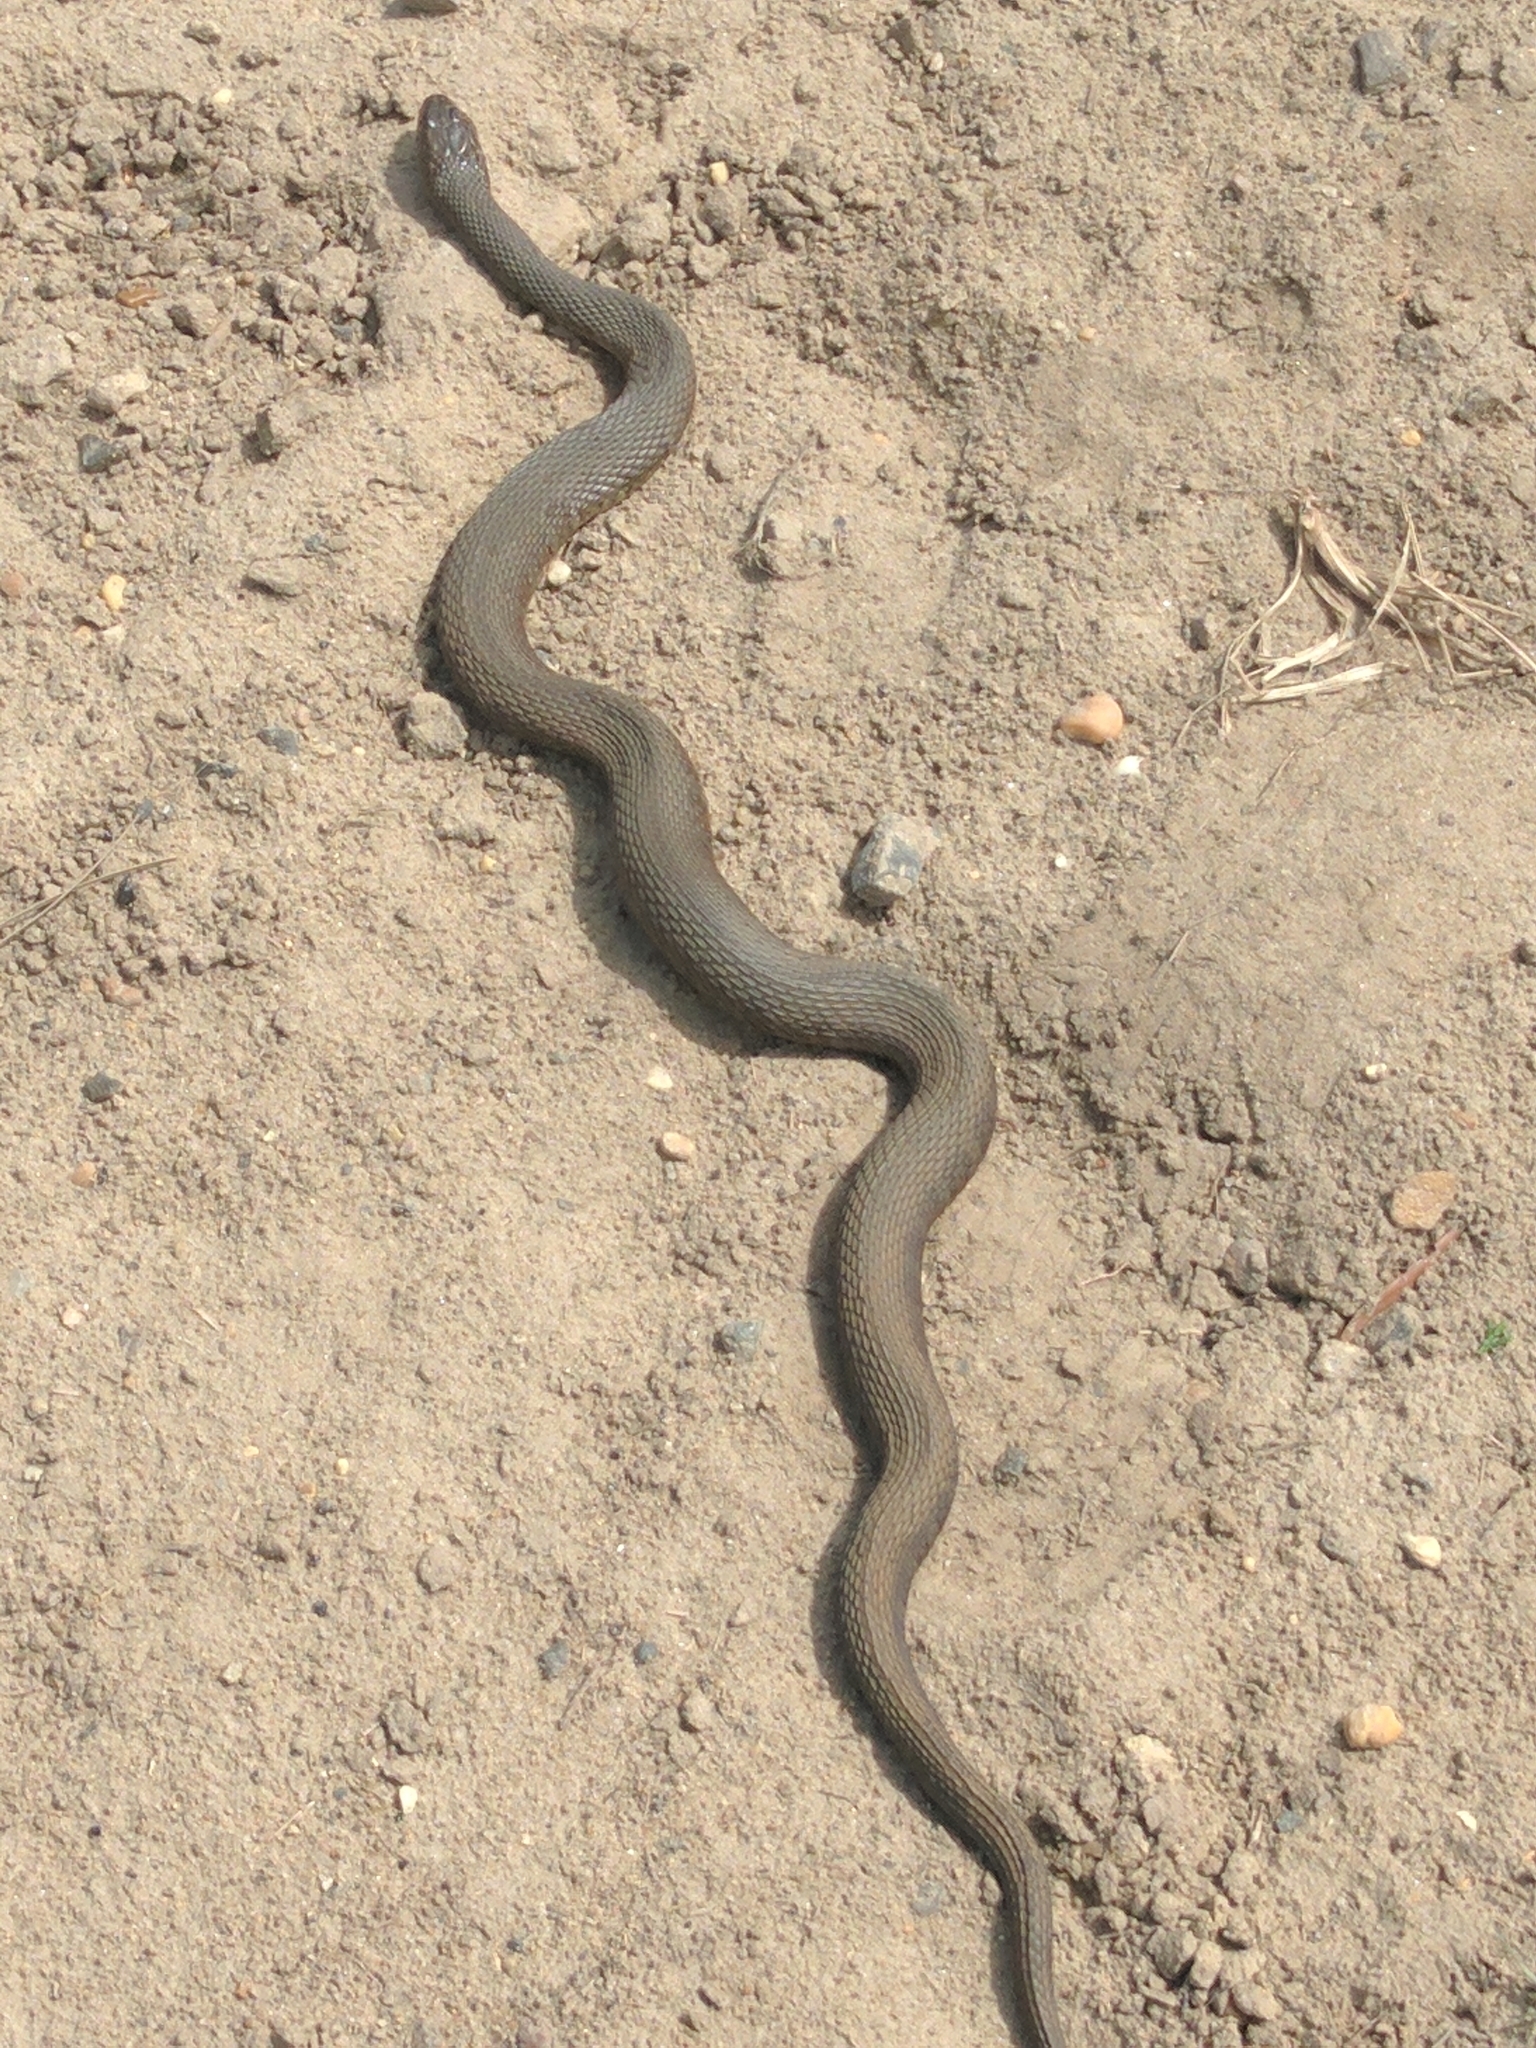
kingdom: Animalia
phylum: Chordata
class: Squamata
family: Colubridae
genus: Nerodia
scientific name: Nerodia sipedon
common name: Northern water snake
